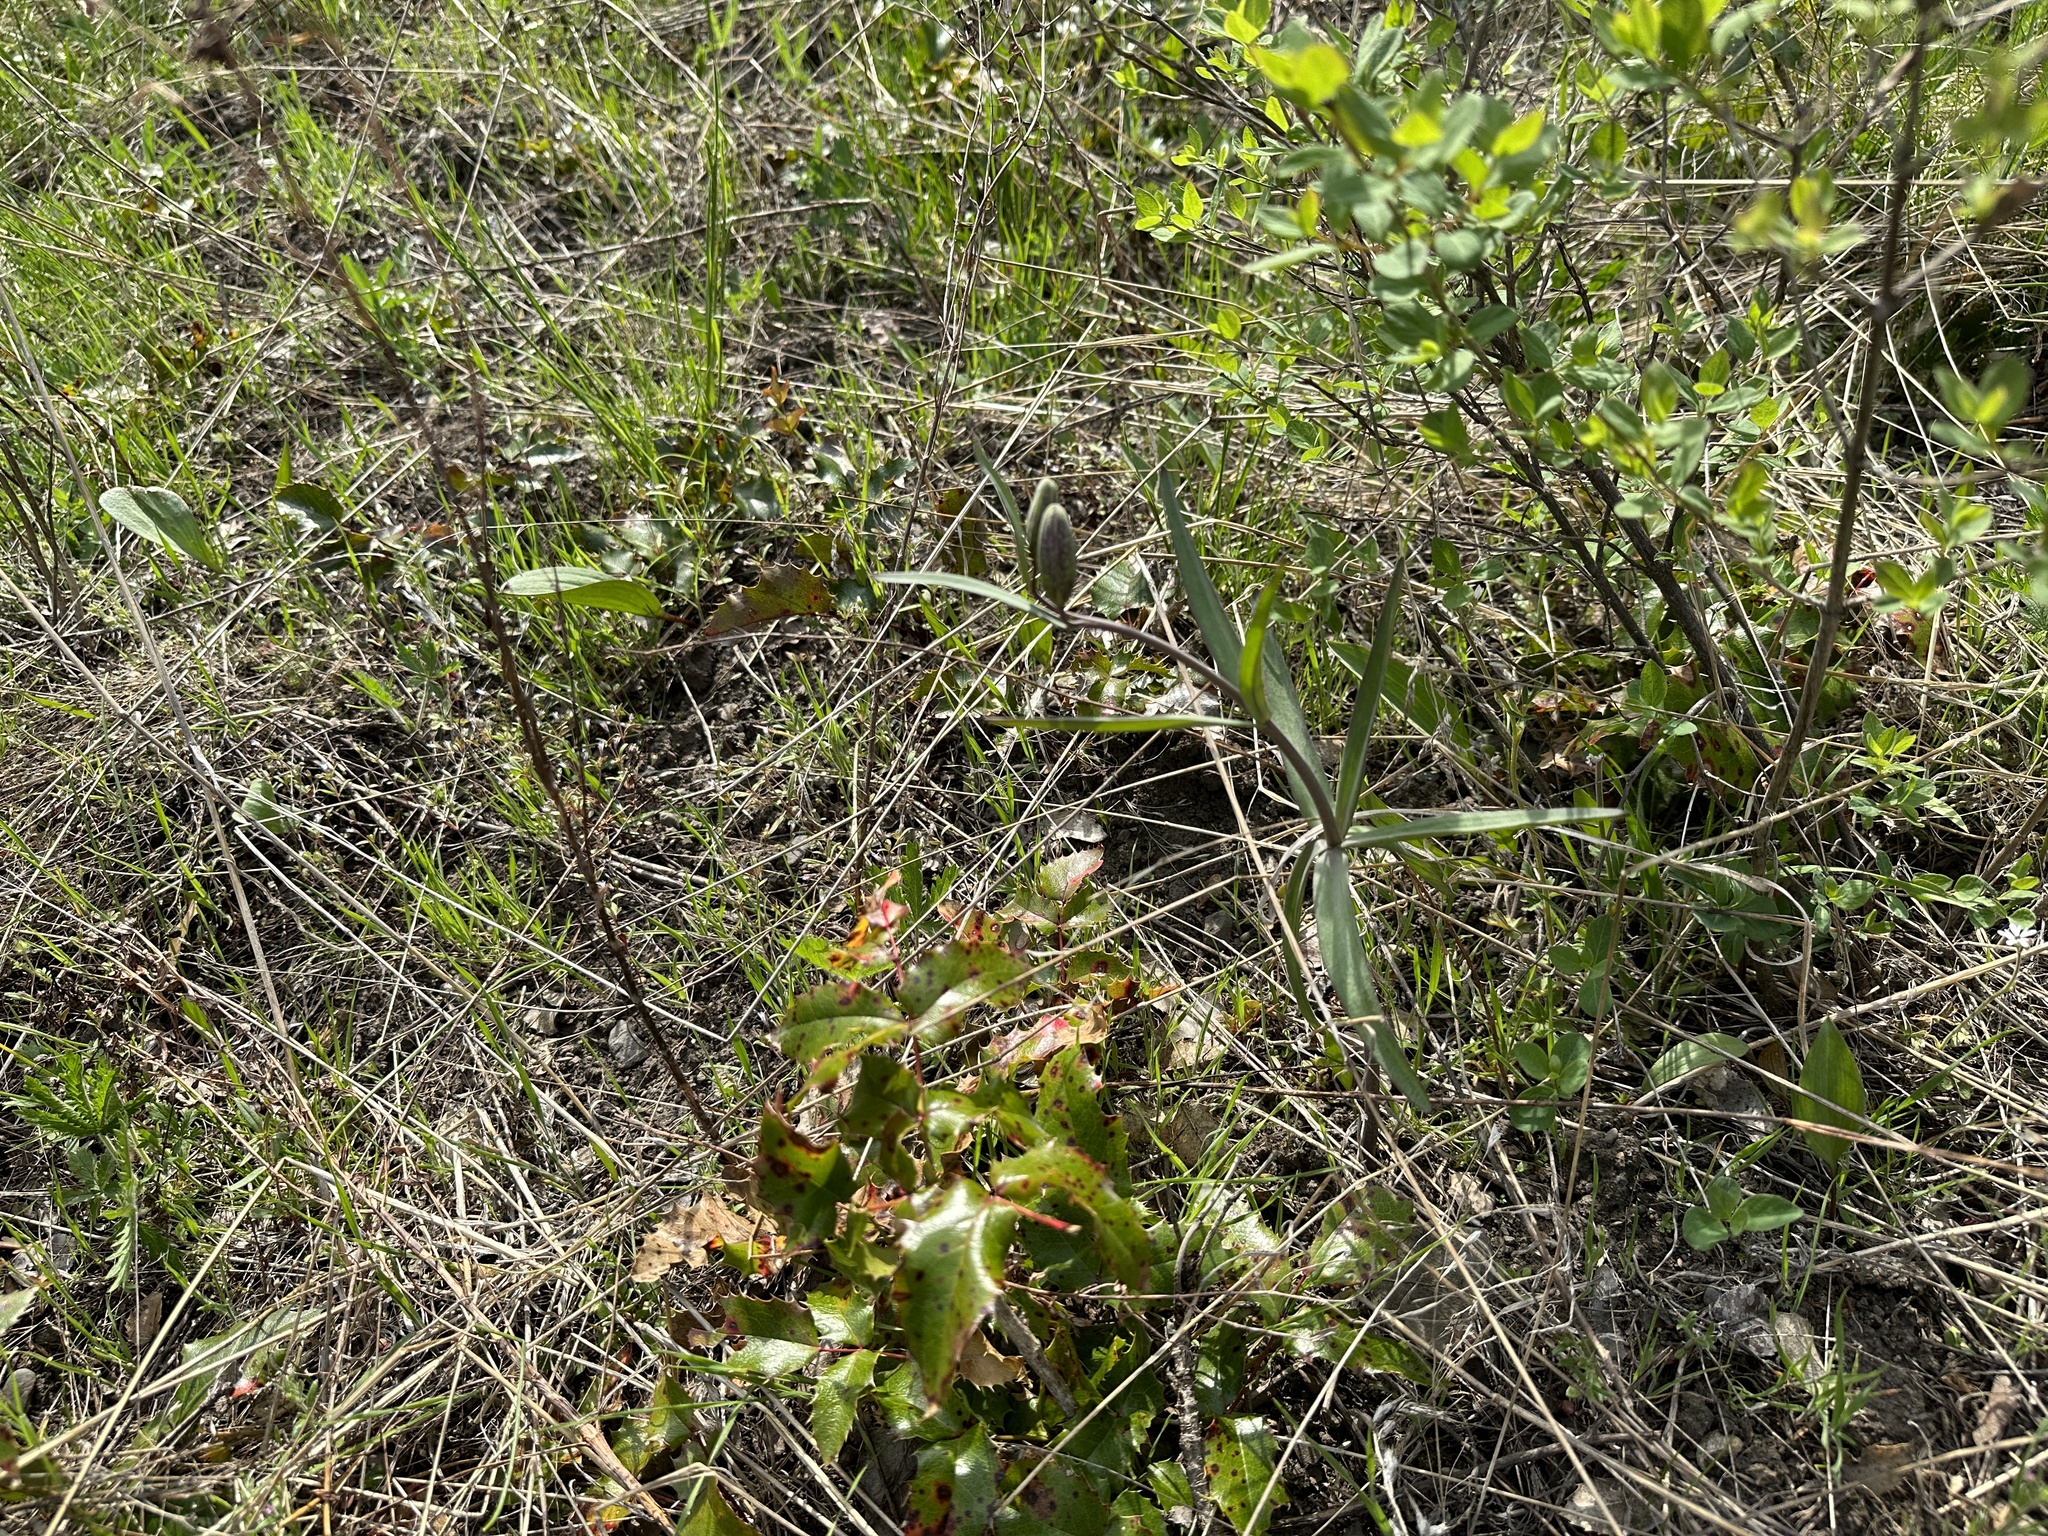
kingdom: Plantae
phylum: Tracheophyta
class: Liliopsida
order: Liliales
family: Liliaceae
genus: Fritillaria
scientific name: Fritillaria affinis
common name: Ojai fritillary
